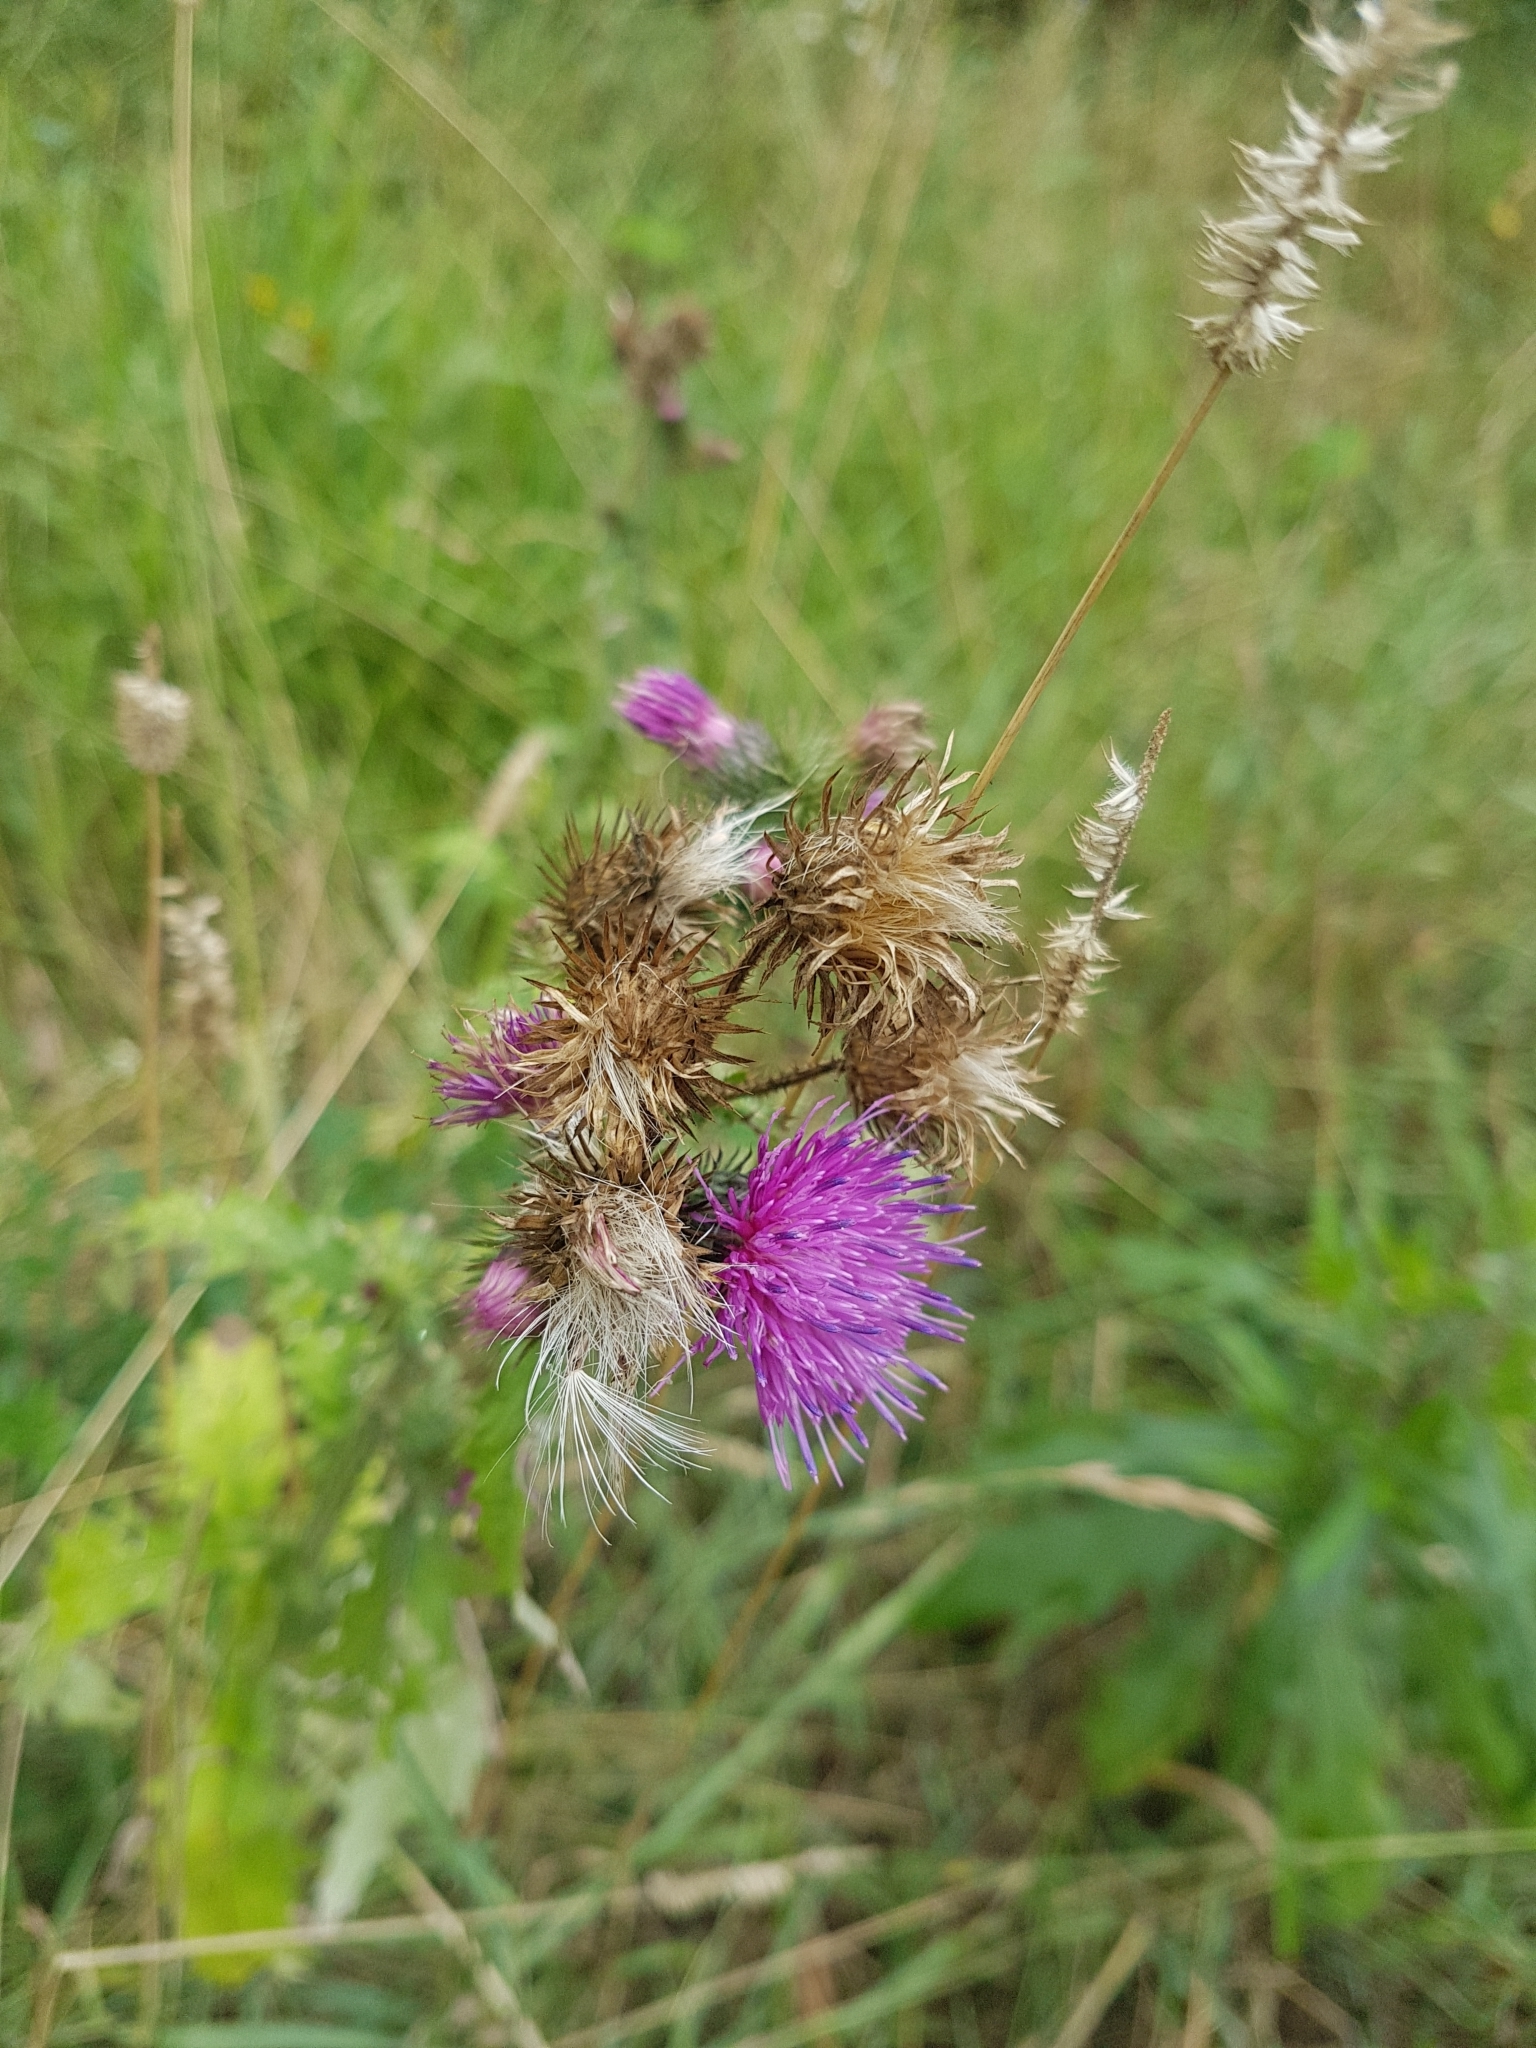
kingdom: Plantae
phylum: Tracheophyta
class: Magnoliopsida
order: Asterales
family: Asteraceae
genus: Carduus
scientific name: Carduus crispus
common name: Welted thistle
